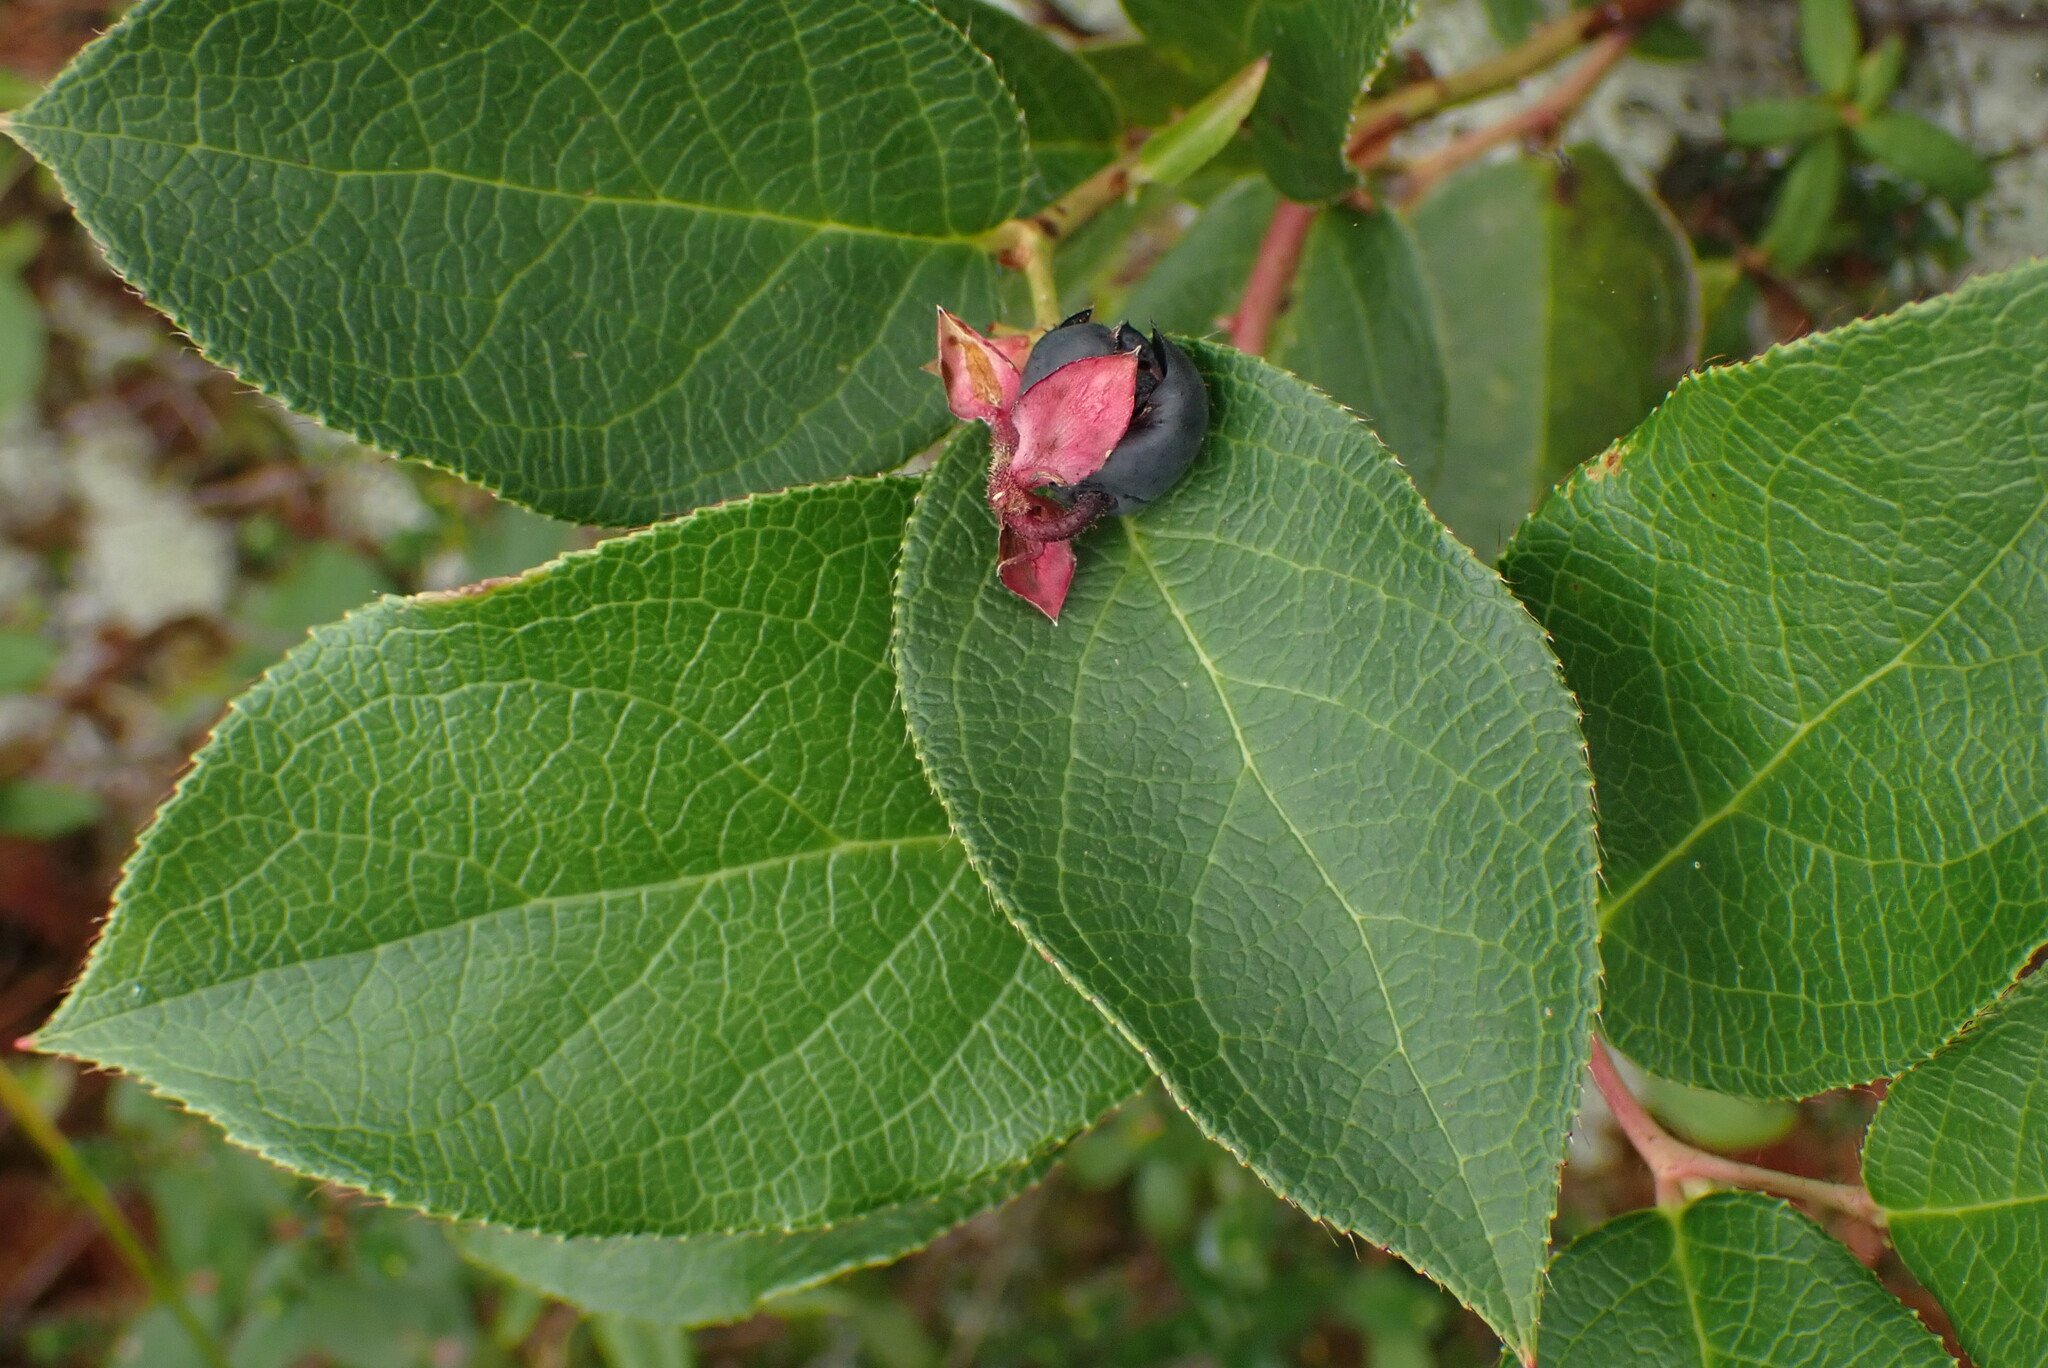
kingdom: Plantae
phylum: Tracheophyta
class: Magnoliopsida
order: Ericales
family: Ericaceae
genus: Gaultheria
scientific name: Gaultheria shallon
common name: Shallon
